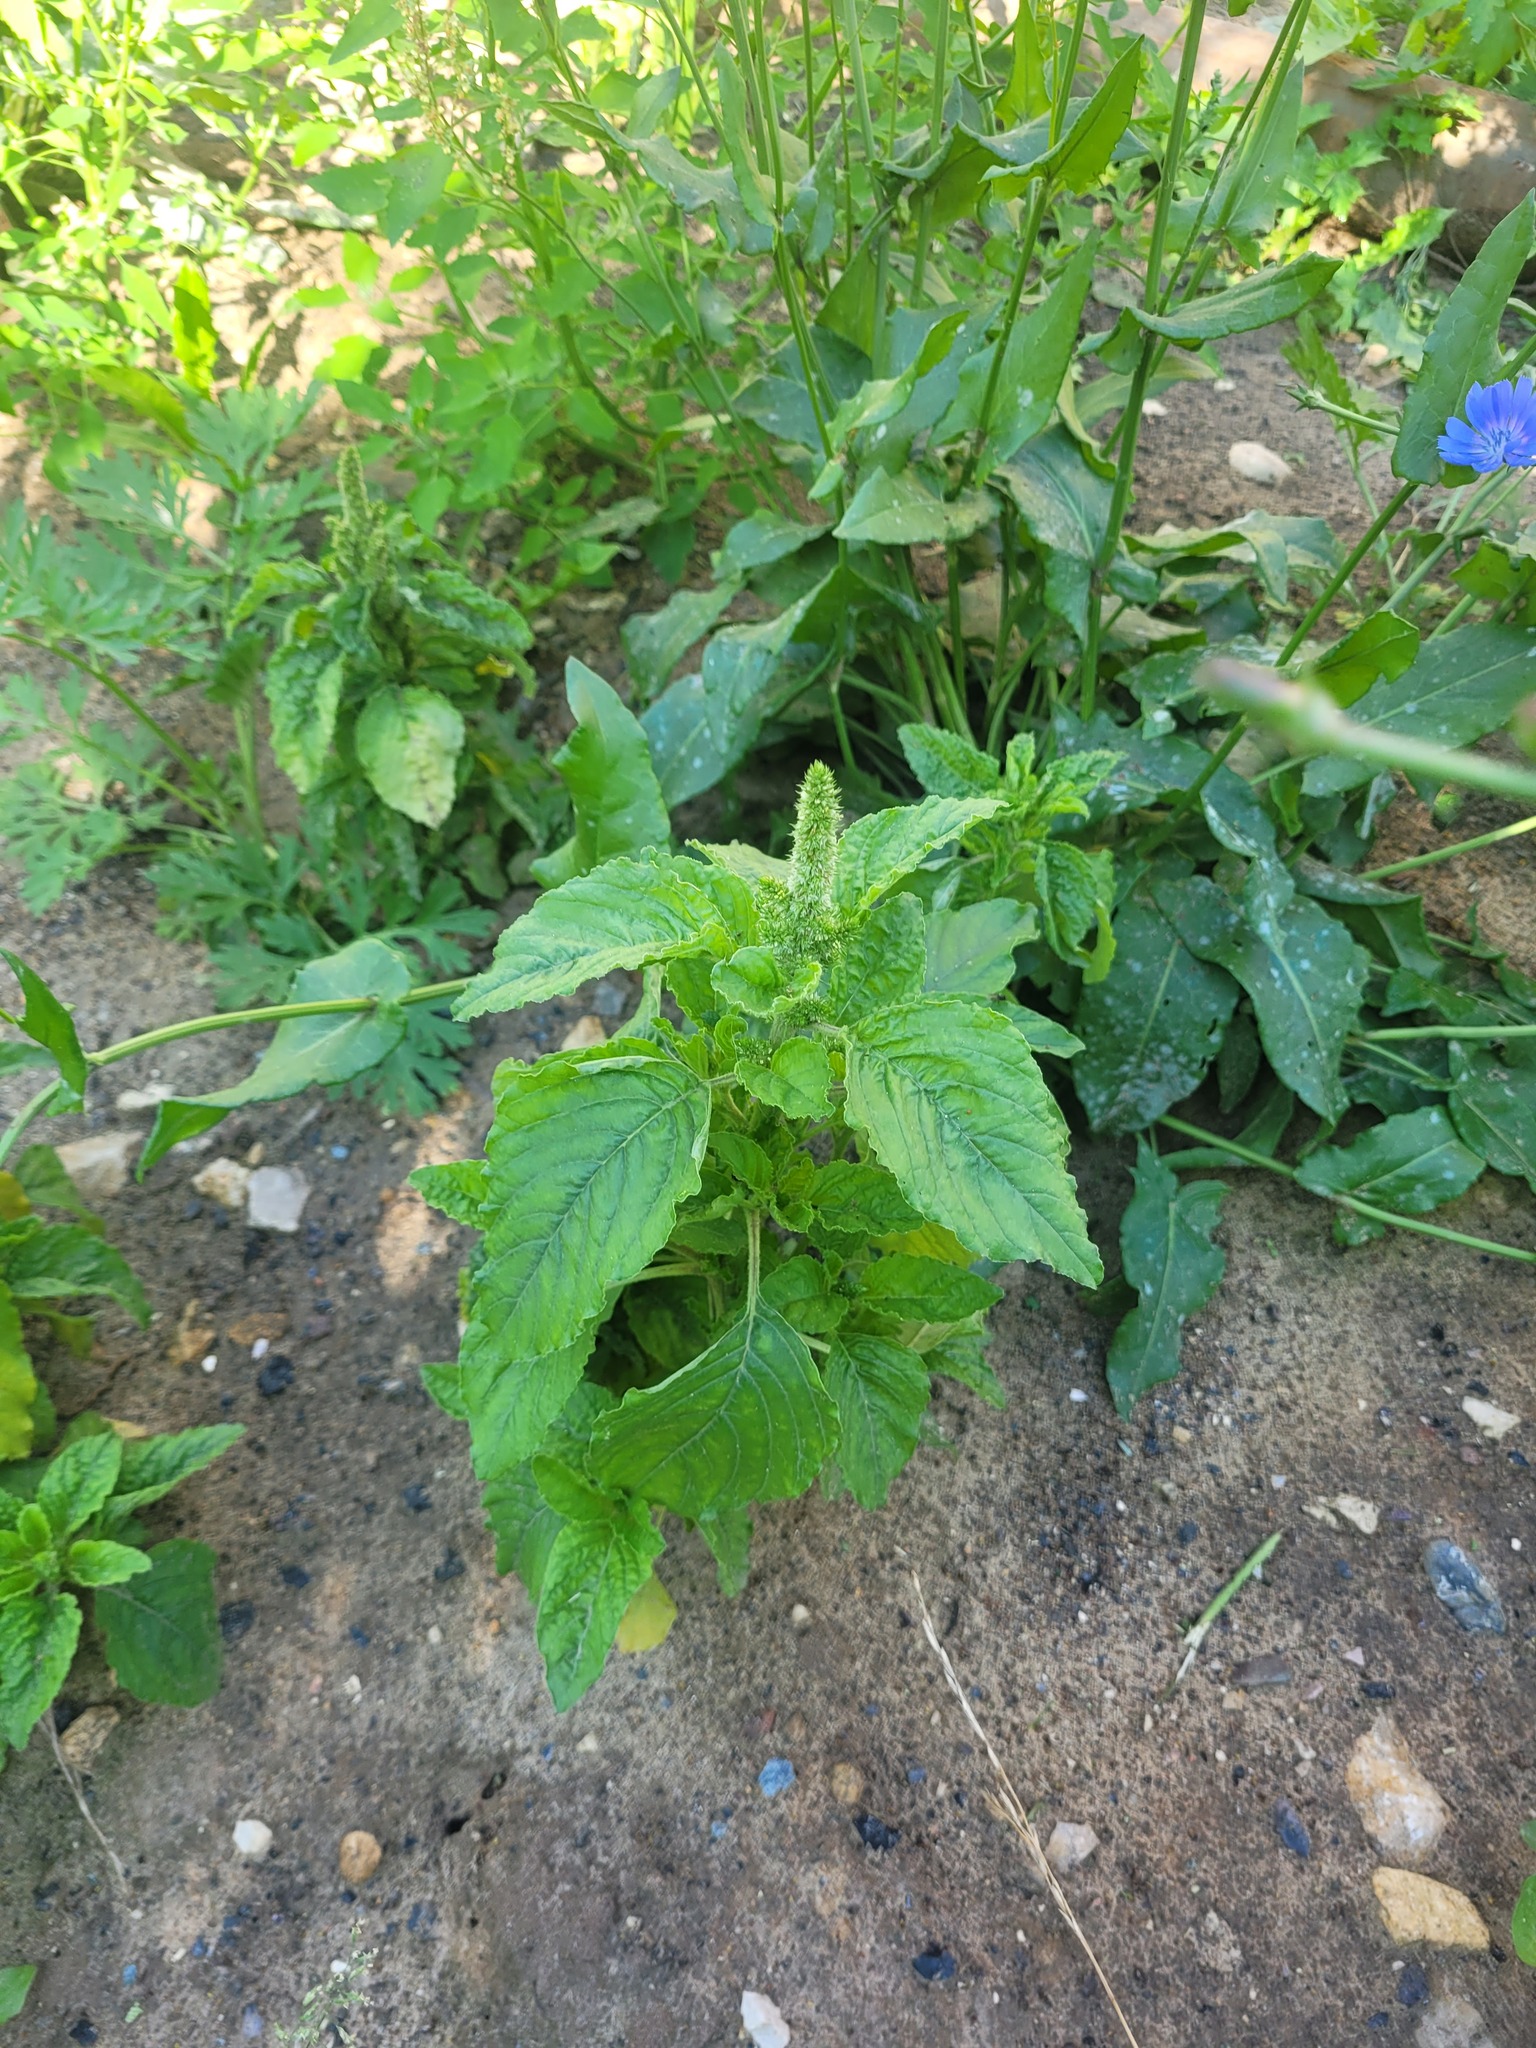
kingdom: Plantae
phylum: Tracheophyta
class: Magnoliopsida
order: Caryophyllales
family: Amaranthaceae
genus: Amaranthus
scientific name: Amaranthus retroflexus
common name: Redroot amaranth
